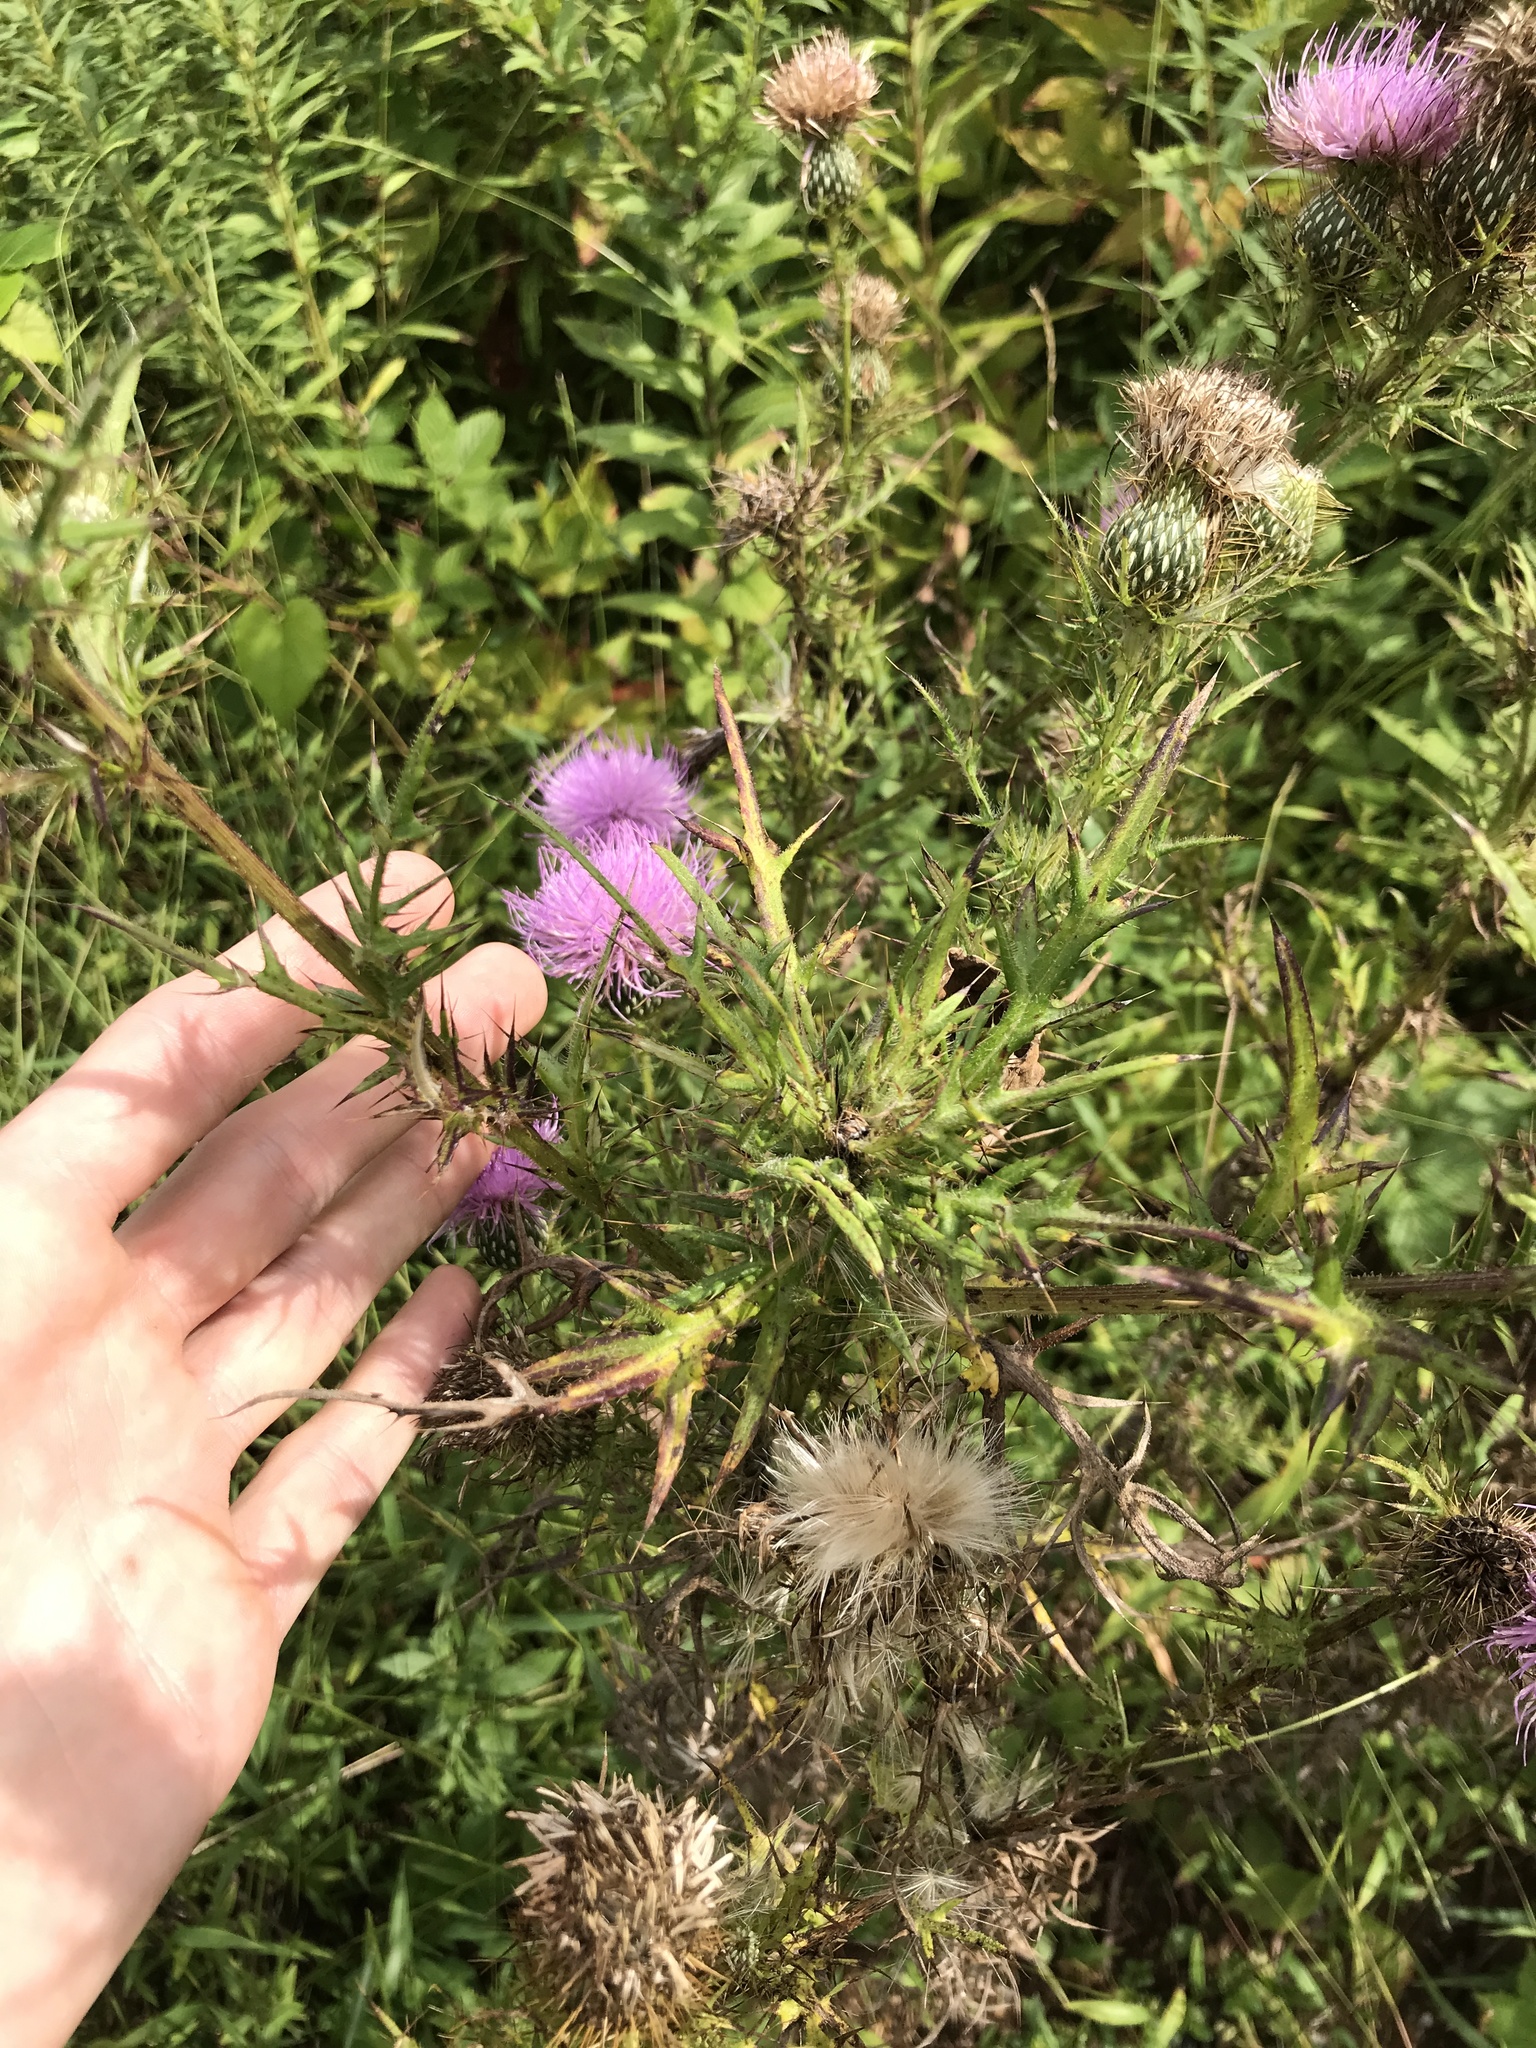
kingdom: Plantae
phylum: Tracheophyta
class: Magnoliopsida
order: Asterales
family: Asteraceae
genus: Cirsium
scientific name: Cirsium discolor
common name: Field thistle
